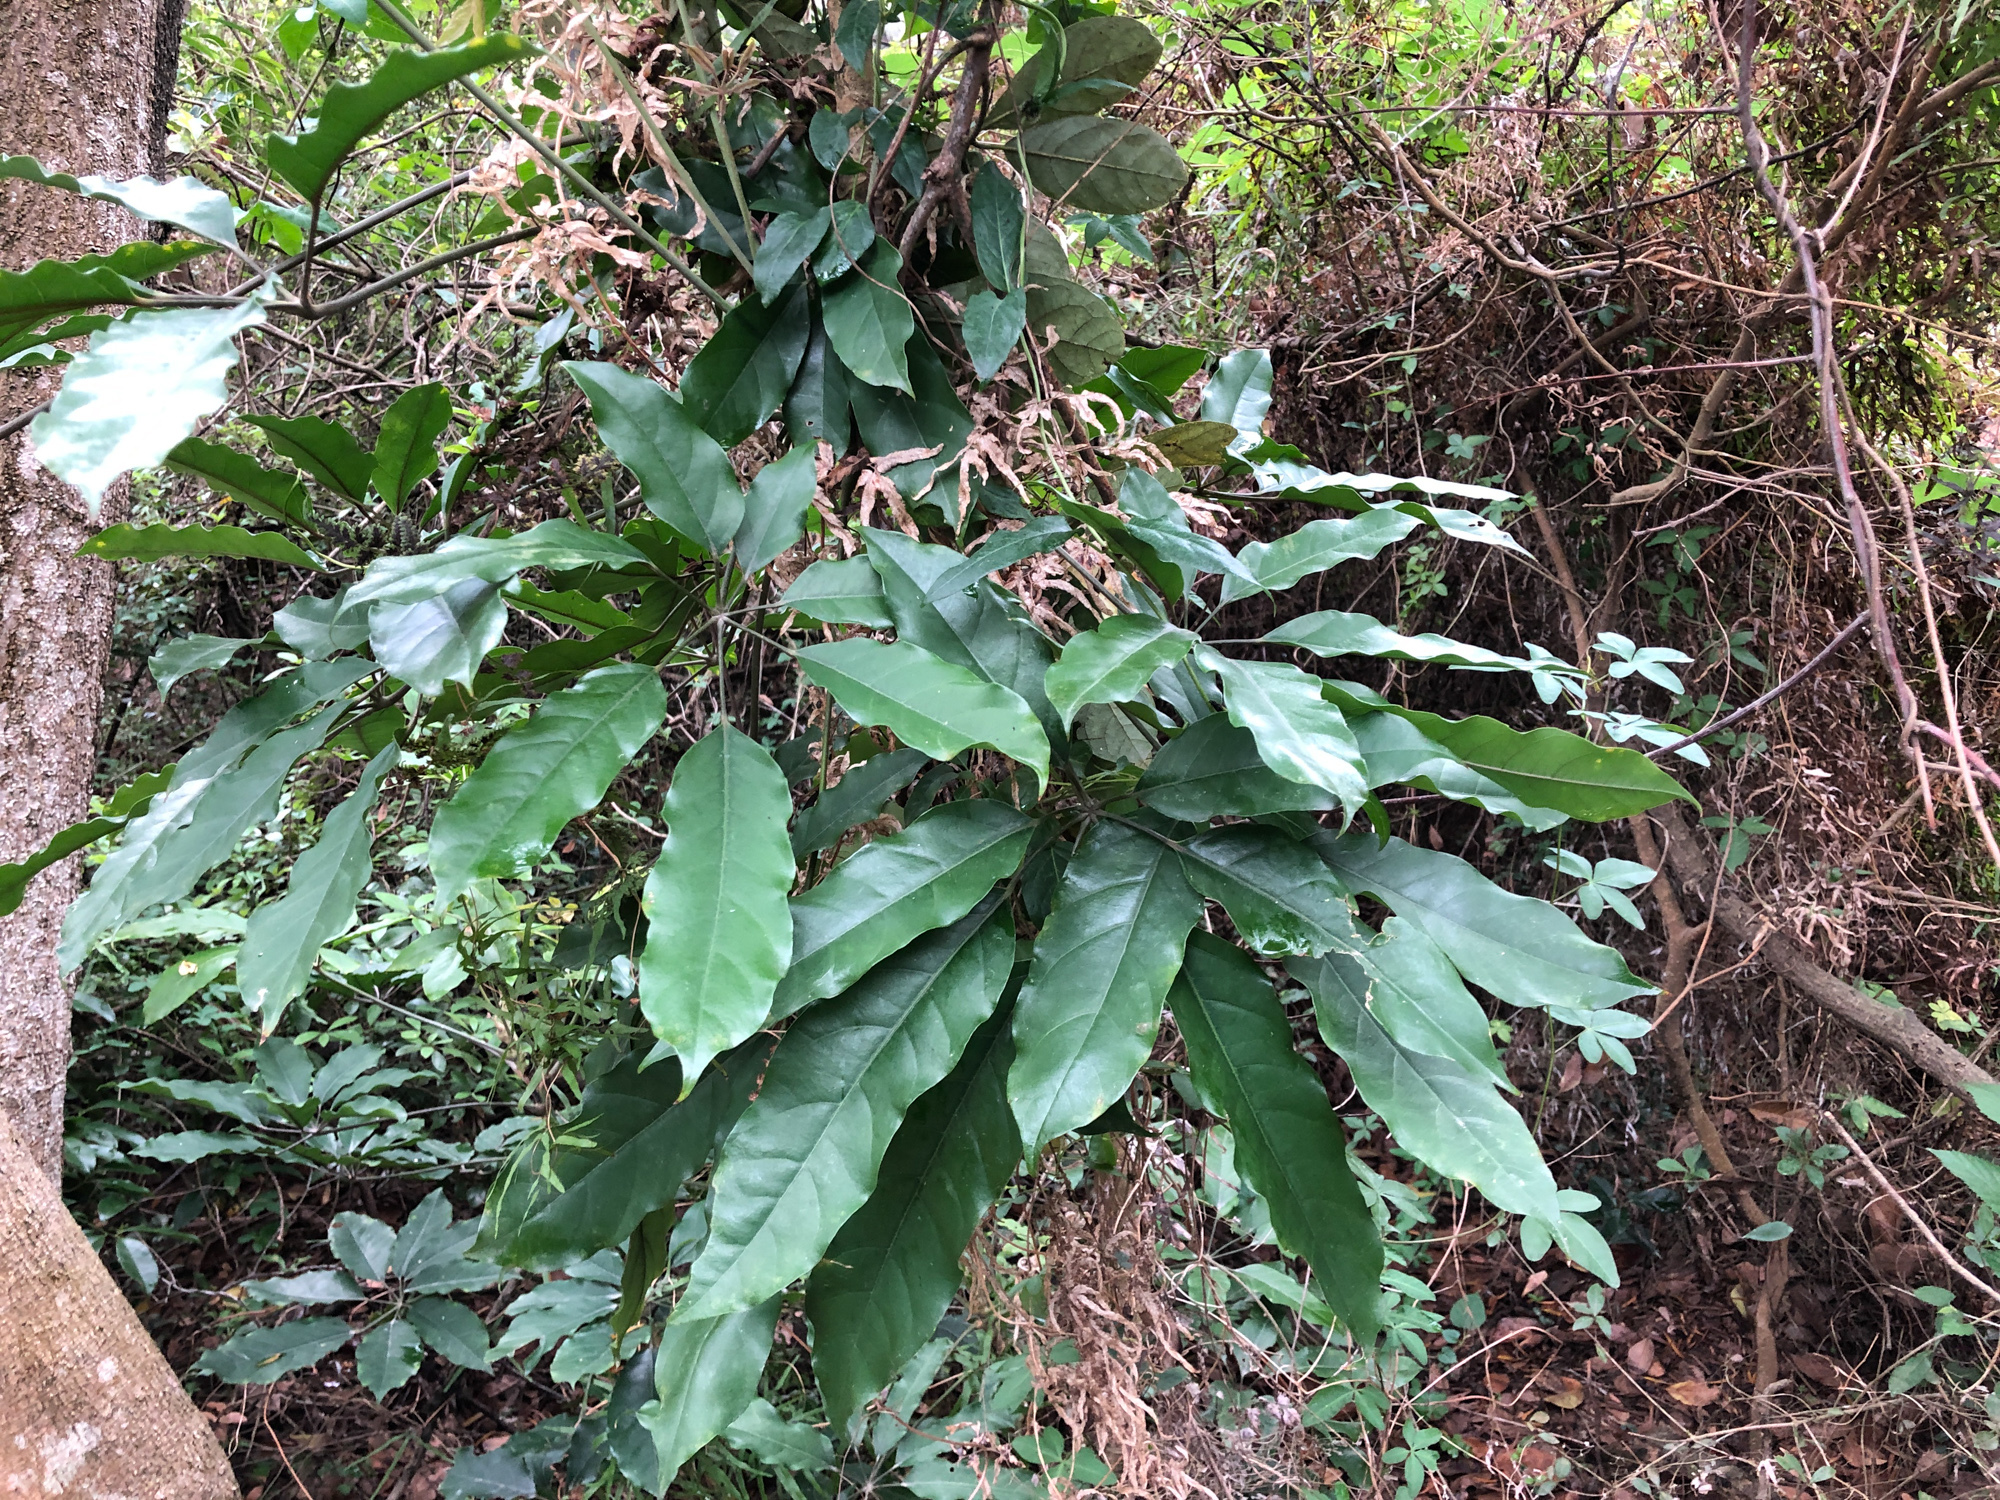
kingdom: Plantae
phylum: Tracheophyta
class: Magnoliopsida
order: Apiales
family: Araliaceae
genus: Heptapleurum
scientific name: Heptapleurum heptaphyllum
